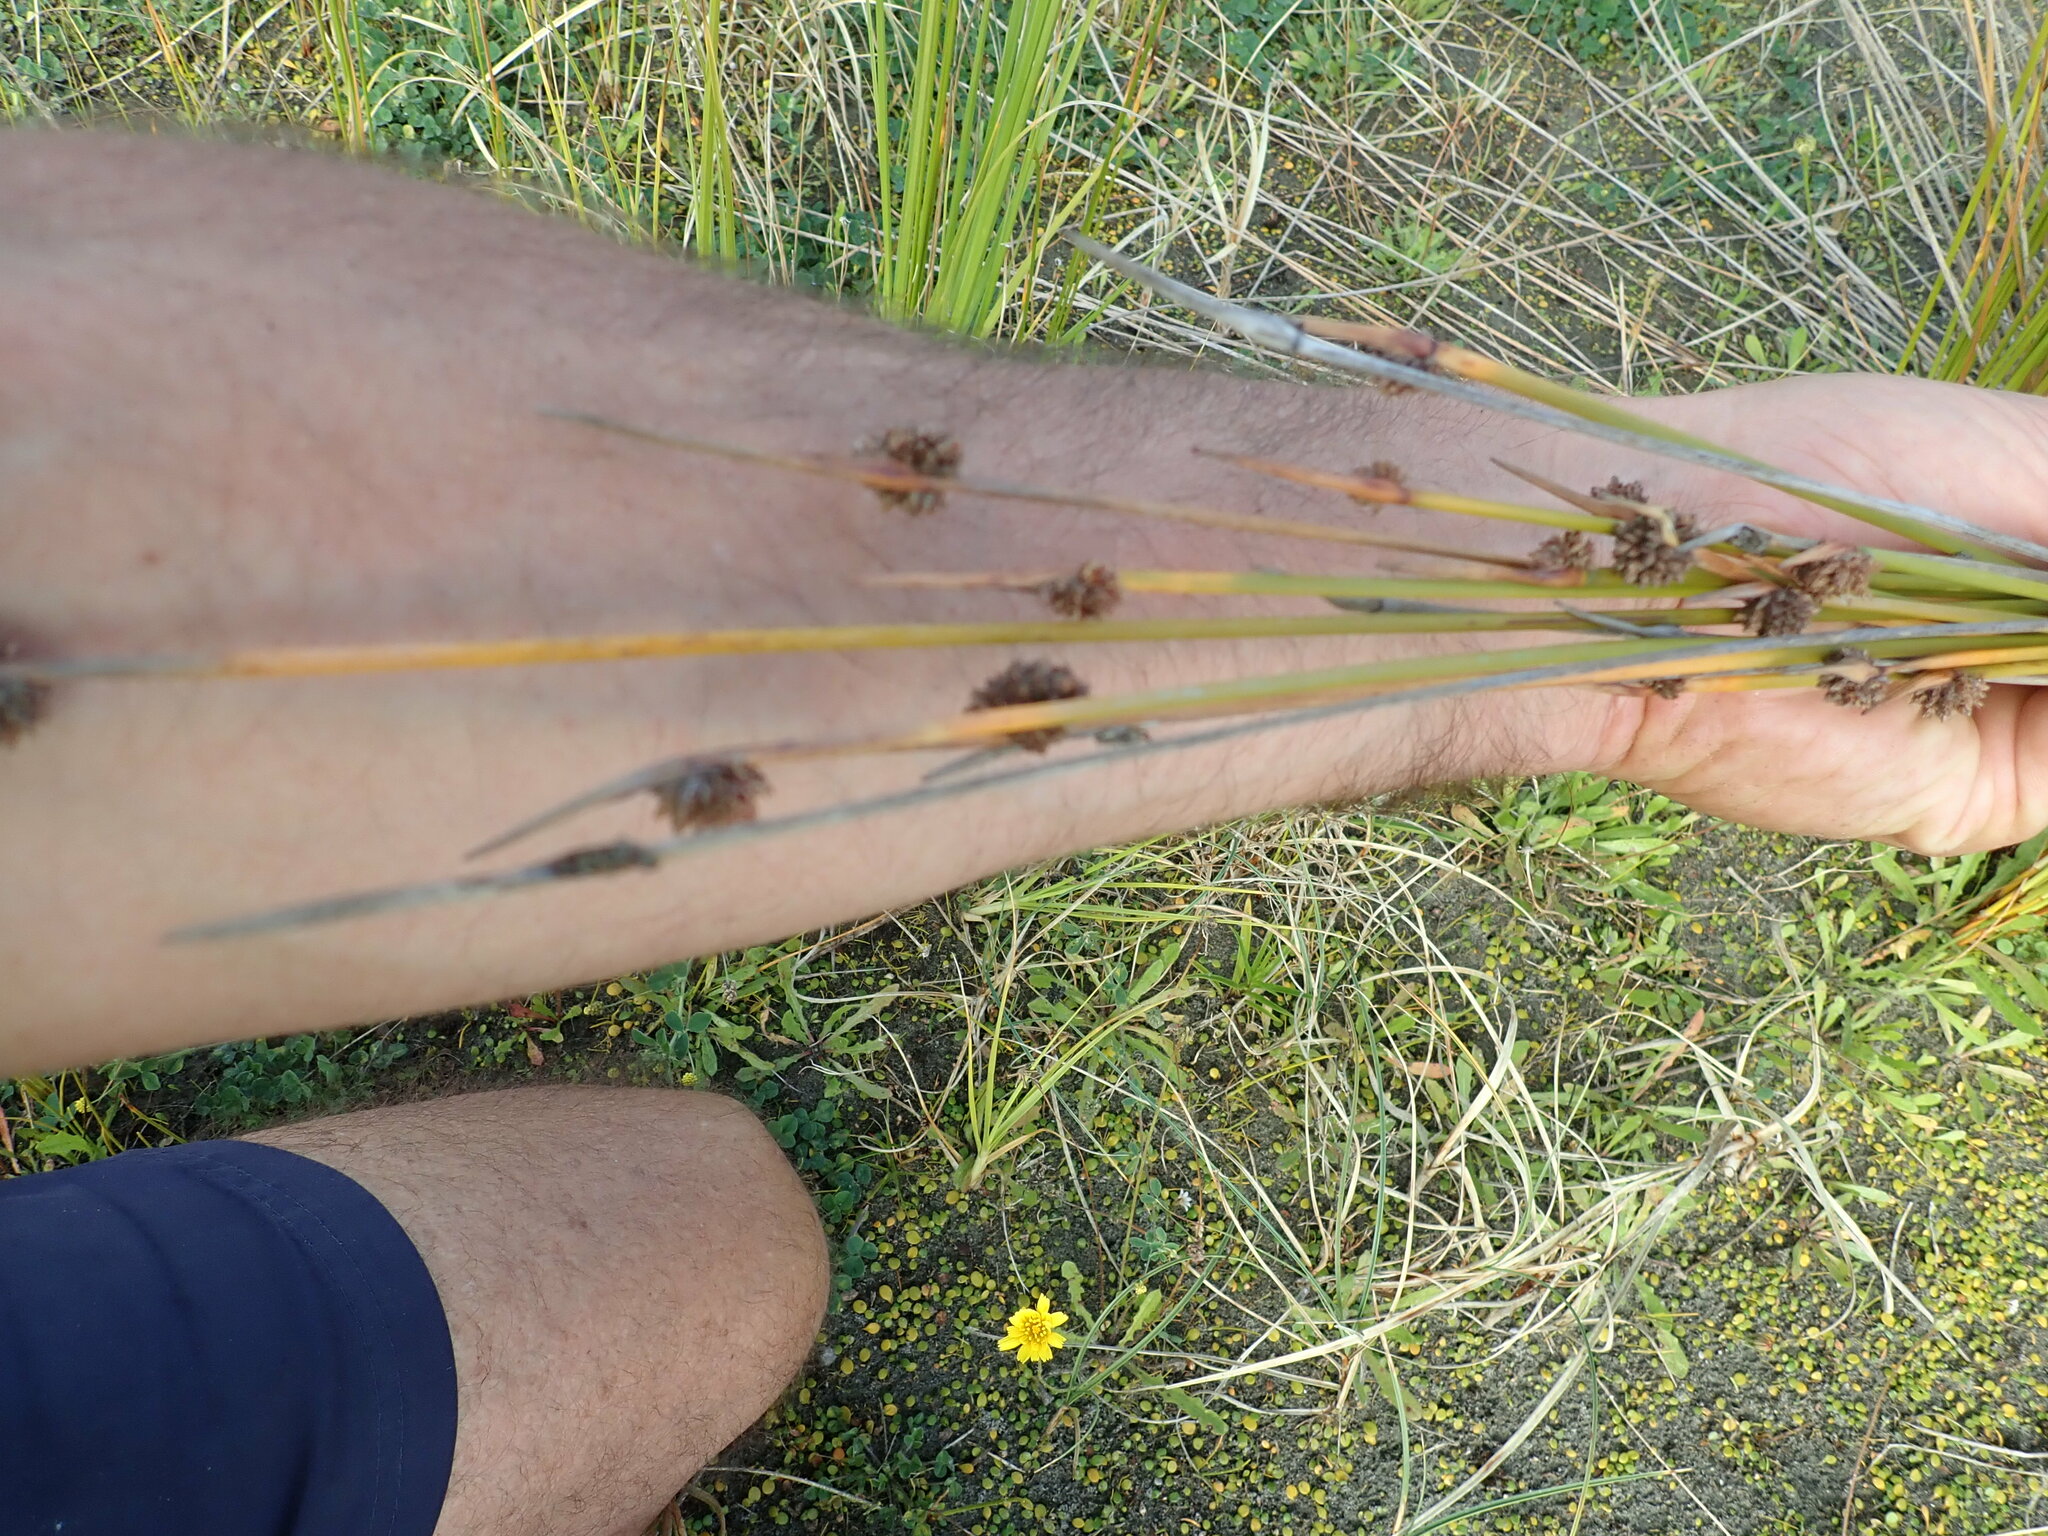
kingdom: Plantae
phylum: Tracheophyta
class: Liliopsida
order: Poales
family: Cyperaceae
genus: Ficinia
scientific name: Ficinia nodosa
